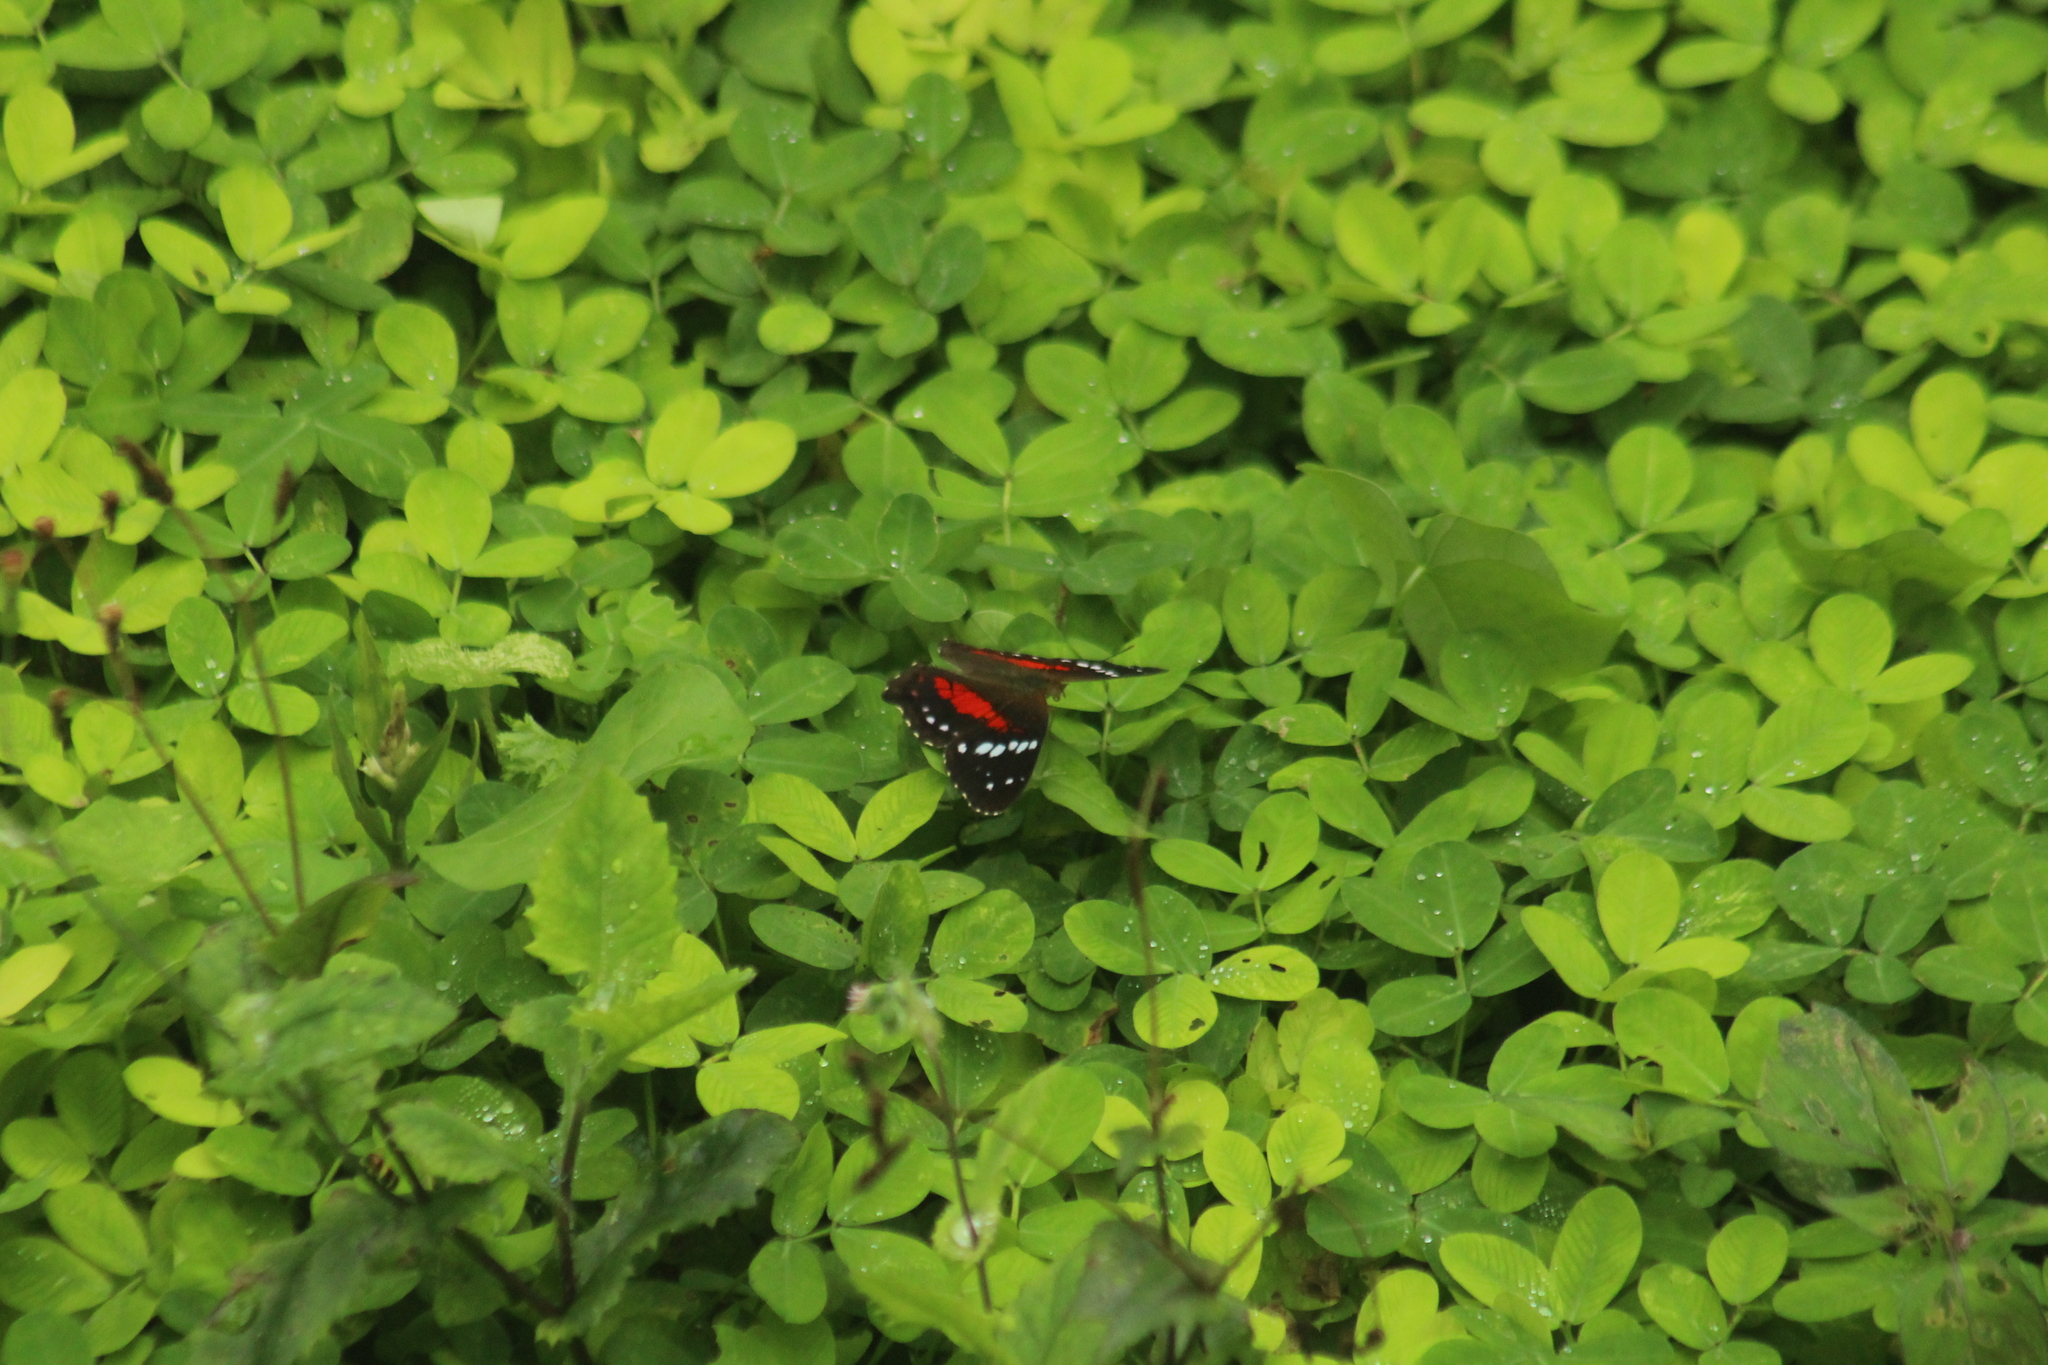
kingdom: Animalia
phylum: Arthropoda
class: Insecta
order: Lepidoptera
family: Nymphalidae
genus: Anartia
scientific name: Anartia amathea
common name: Red peacock
